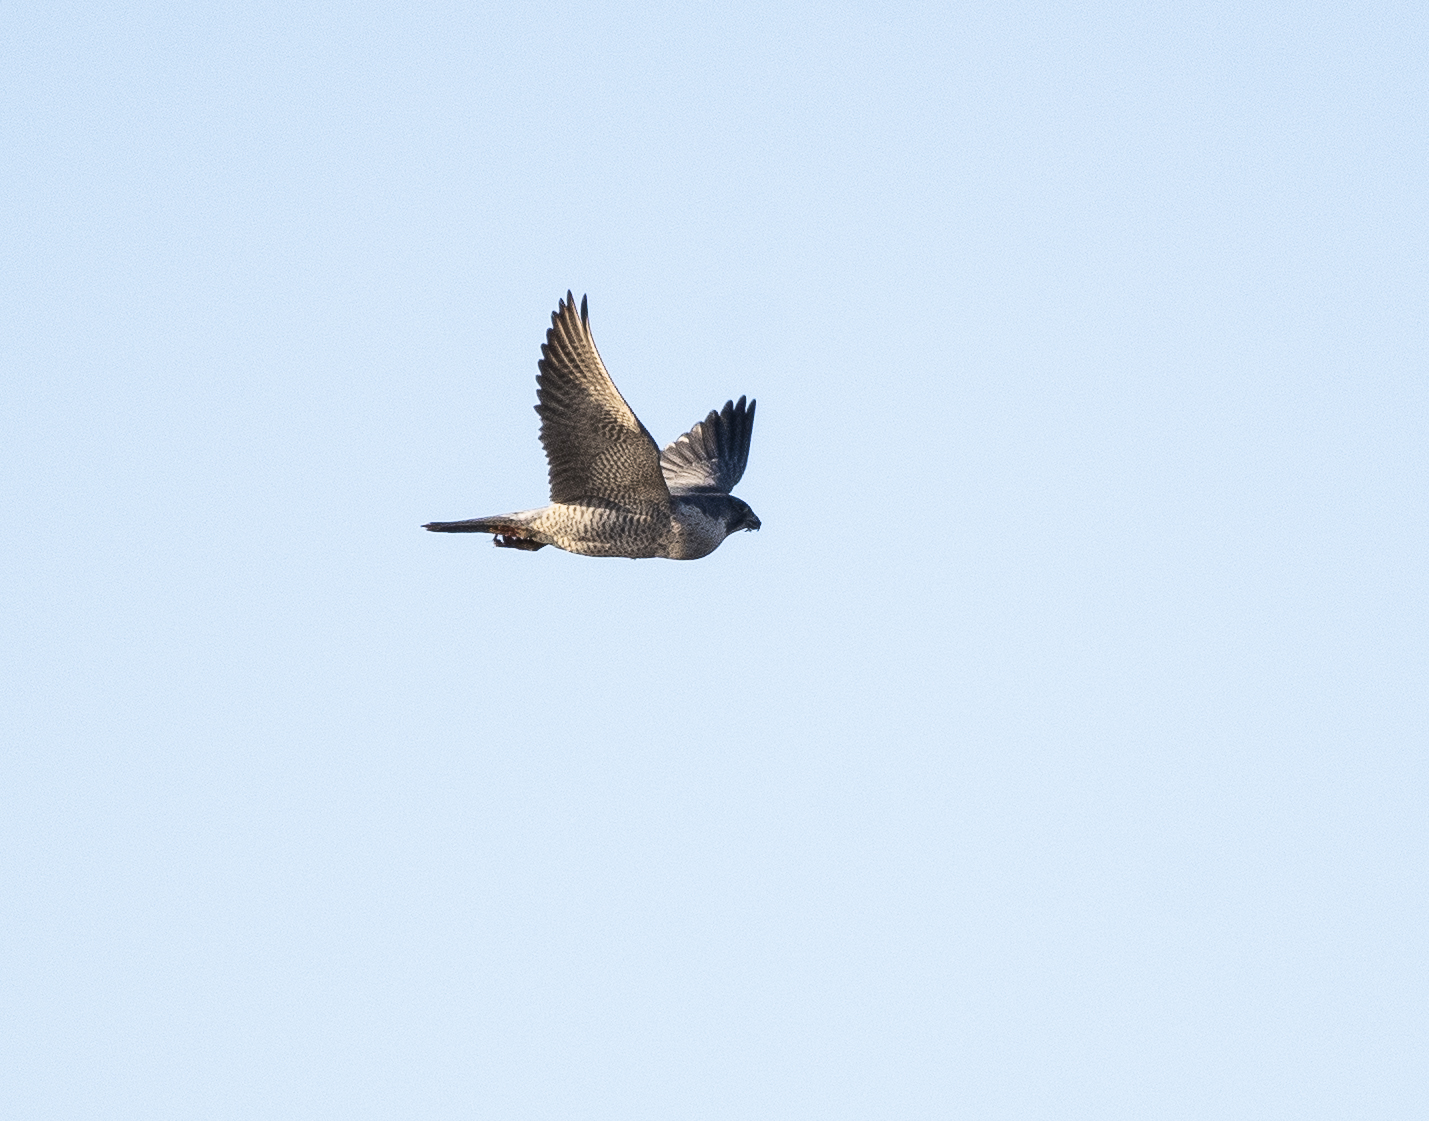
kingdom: Animalia
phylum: Chordata
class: Aves
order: Falconiformes
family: Falconidae
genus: Falco
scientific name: Falco peregrinus
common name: Peregrine falcon
